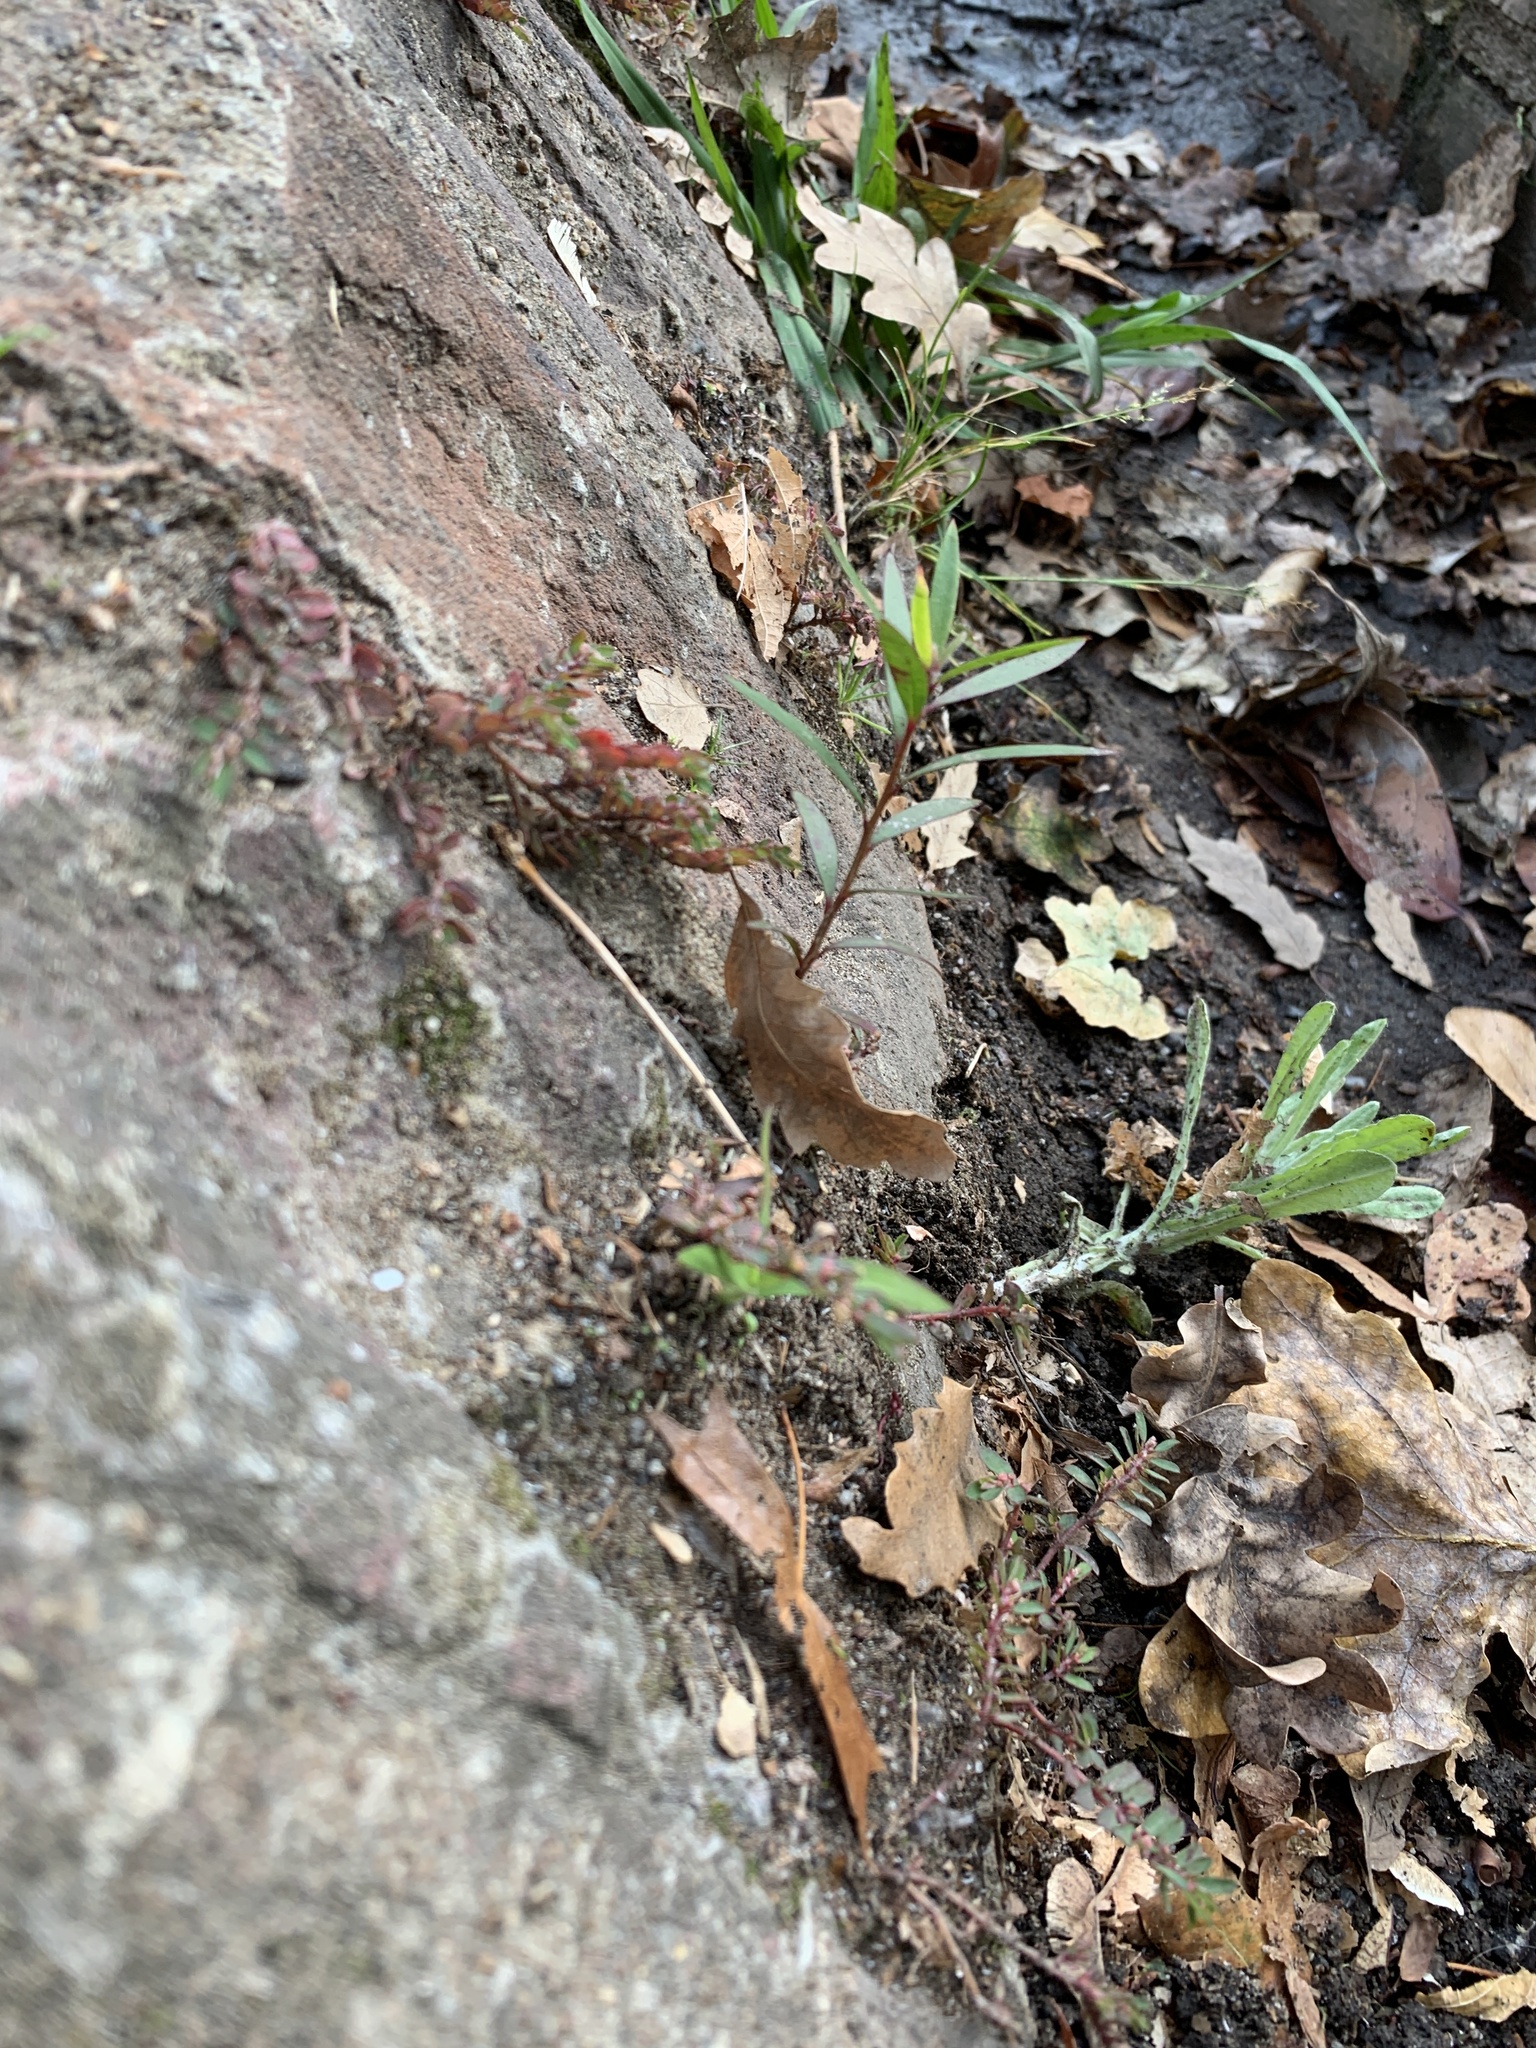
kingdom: Plantae
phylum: Tracheophyta
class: Magnoliopsida
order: Myrtales
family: Myrtaceae
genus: Callistemon
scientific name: Callistemon viminalis
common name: Drooping bottlebrush
